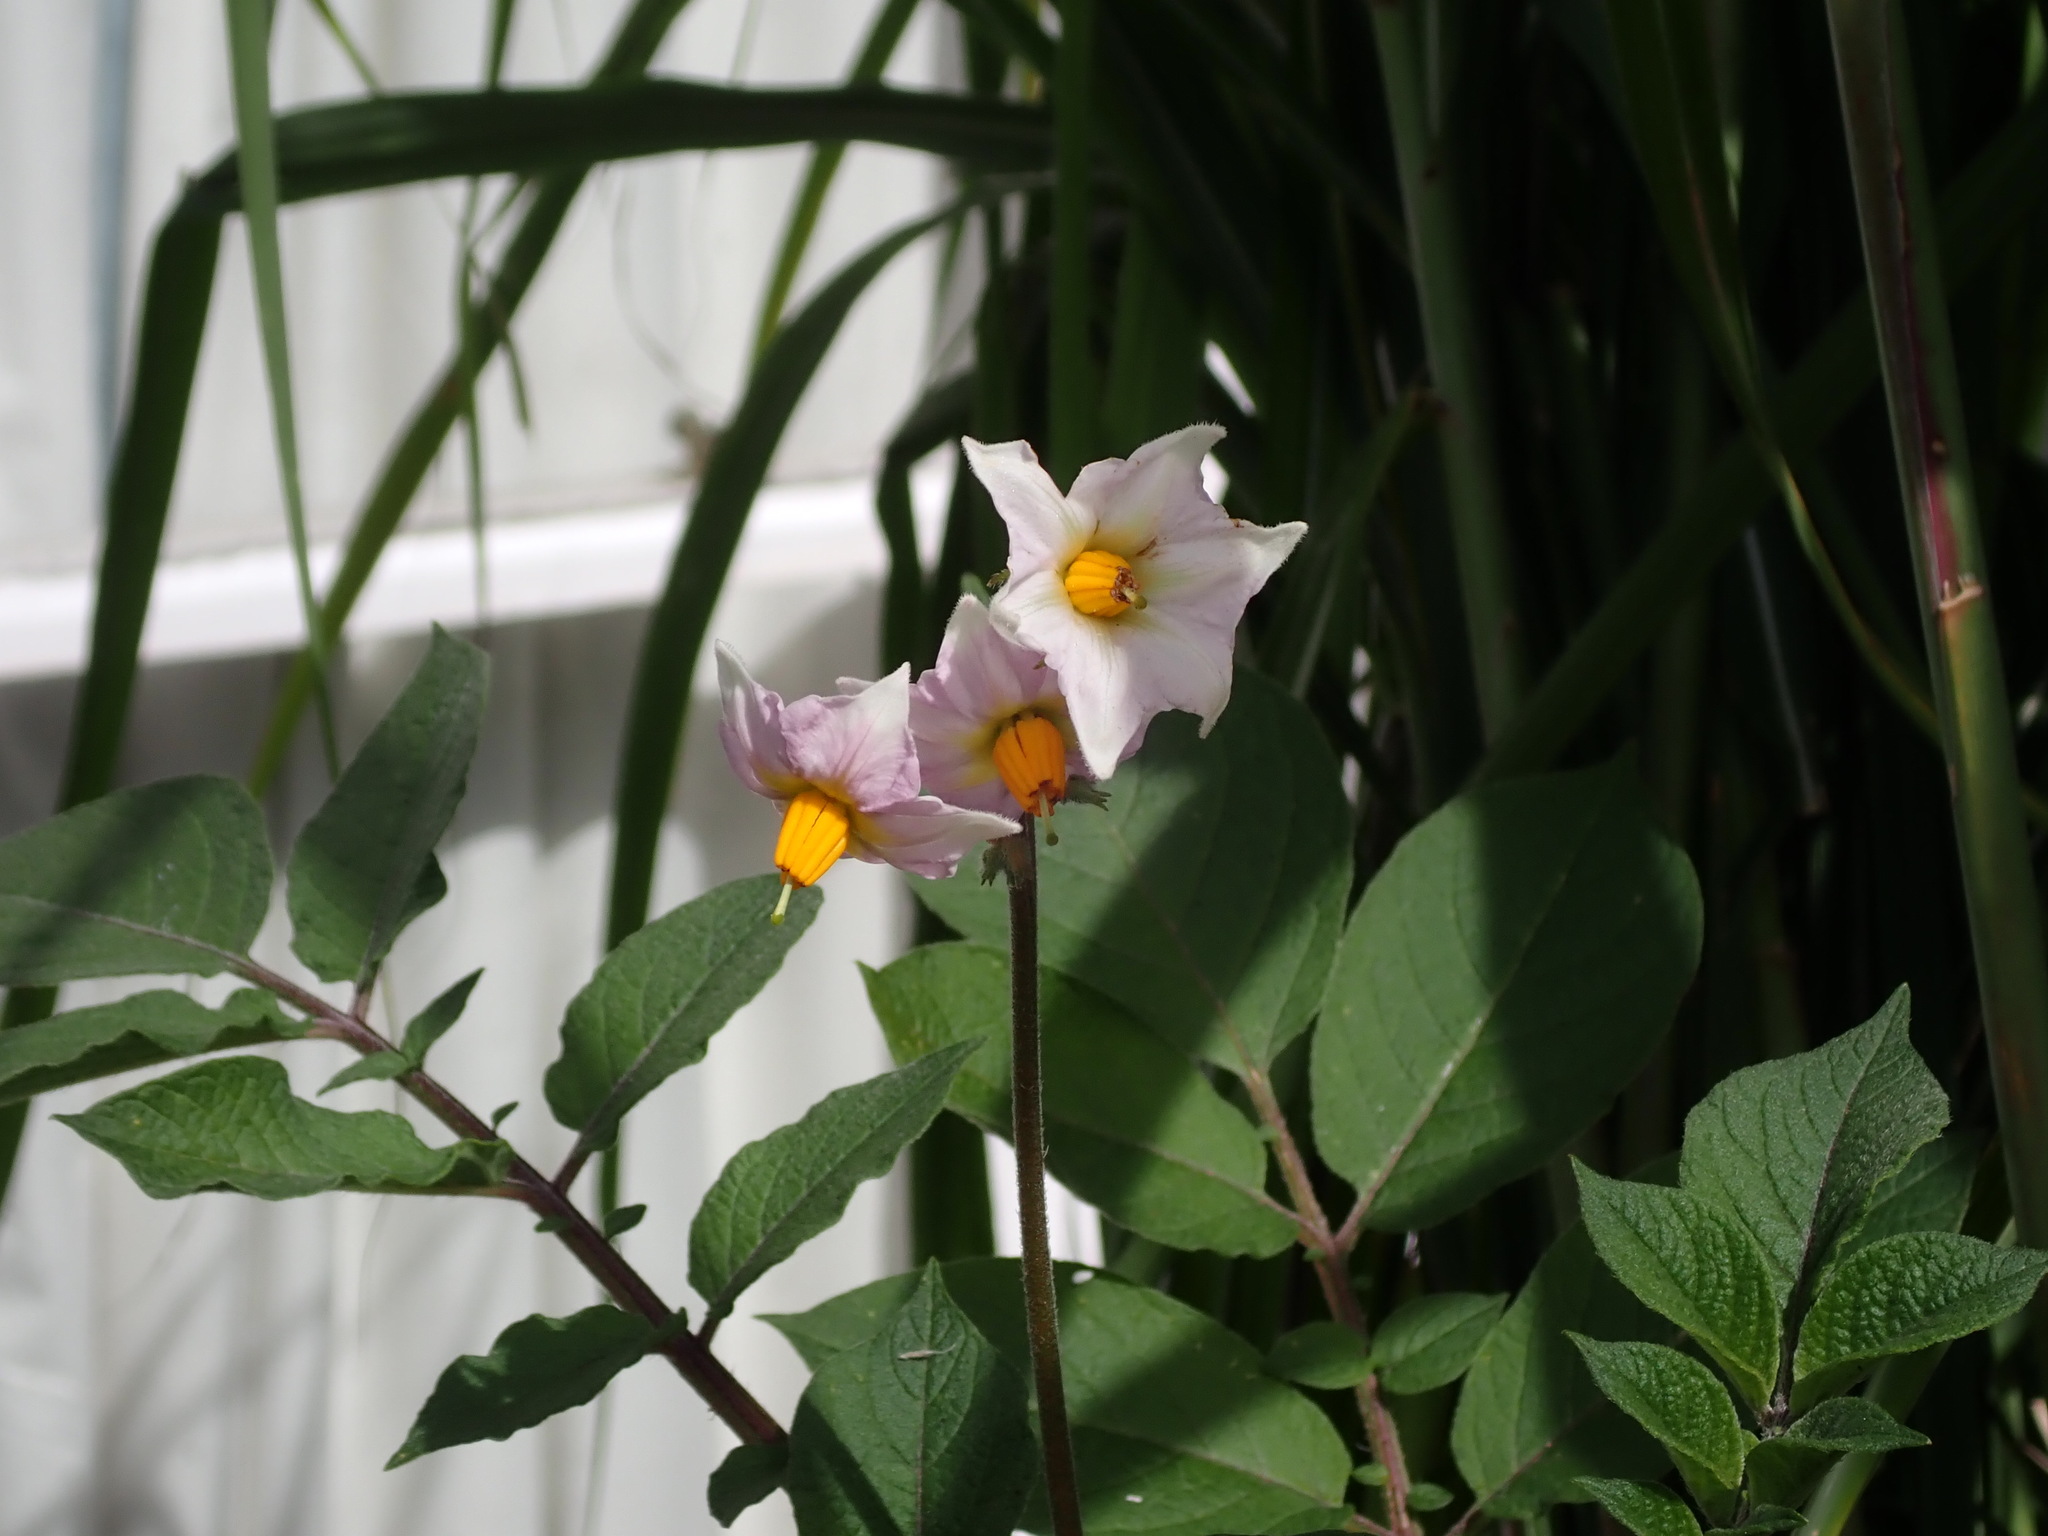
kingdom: Plantae
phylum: Tracheophyta
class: Magnoliopsida
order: Solanales
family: Solanaceae
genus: Solanum
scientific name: Solanum tuberosum
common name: Potato
